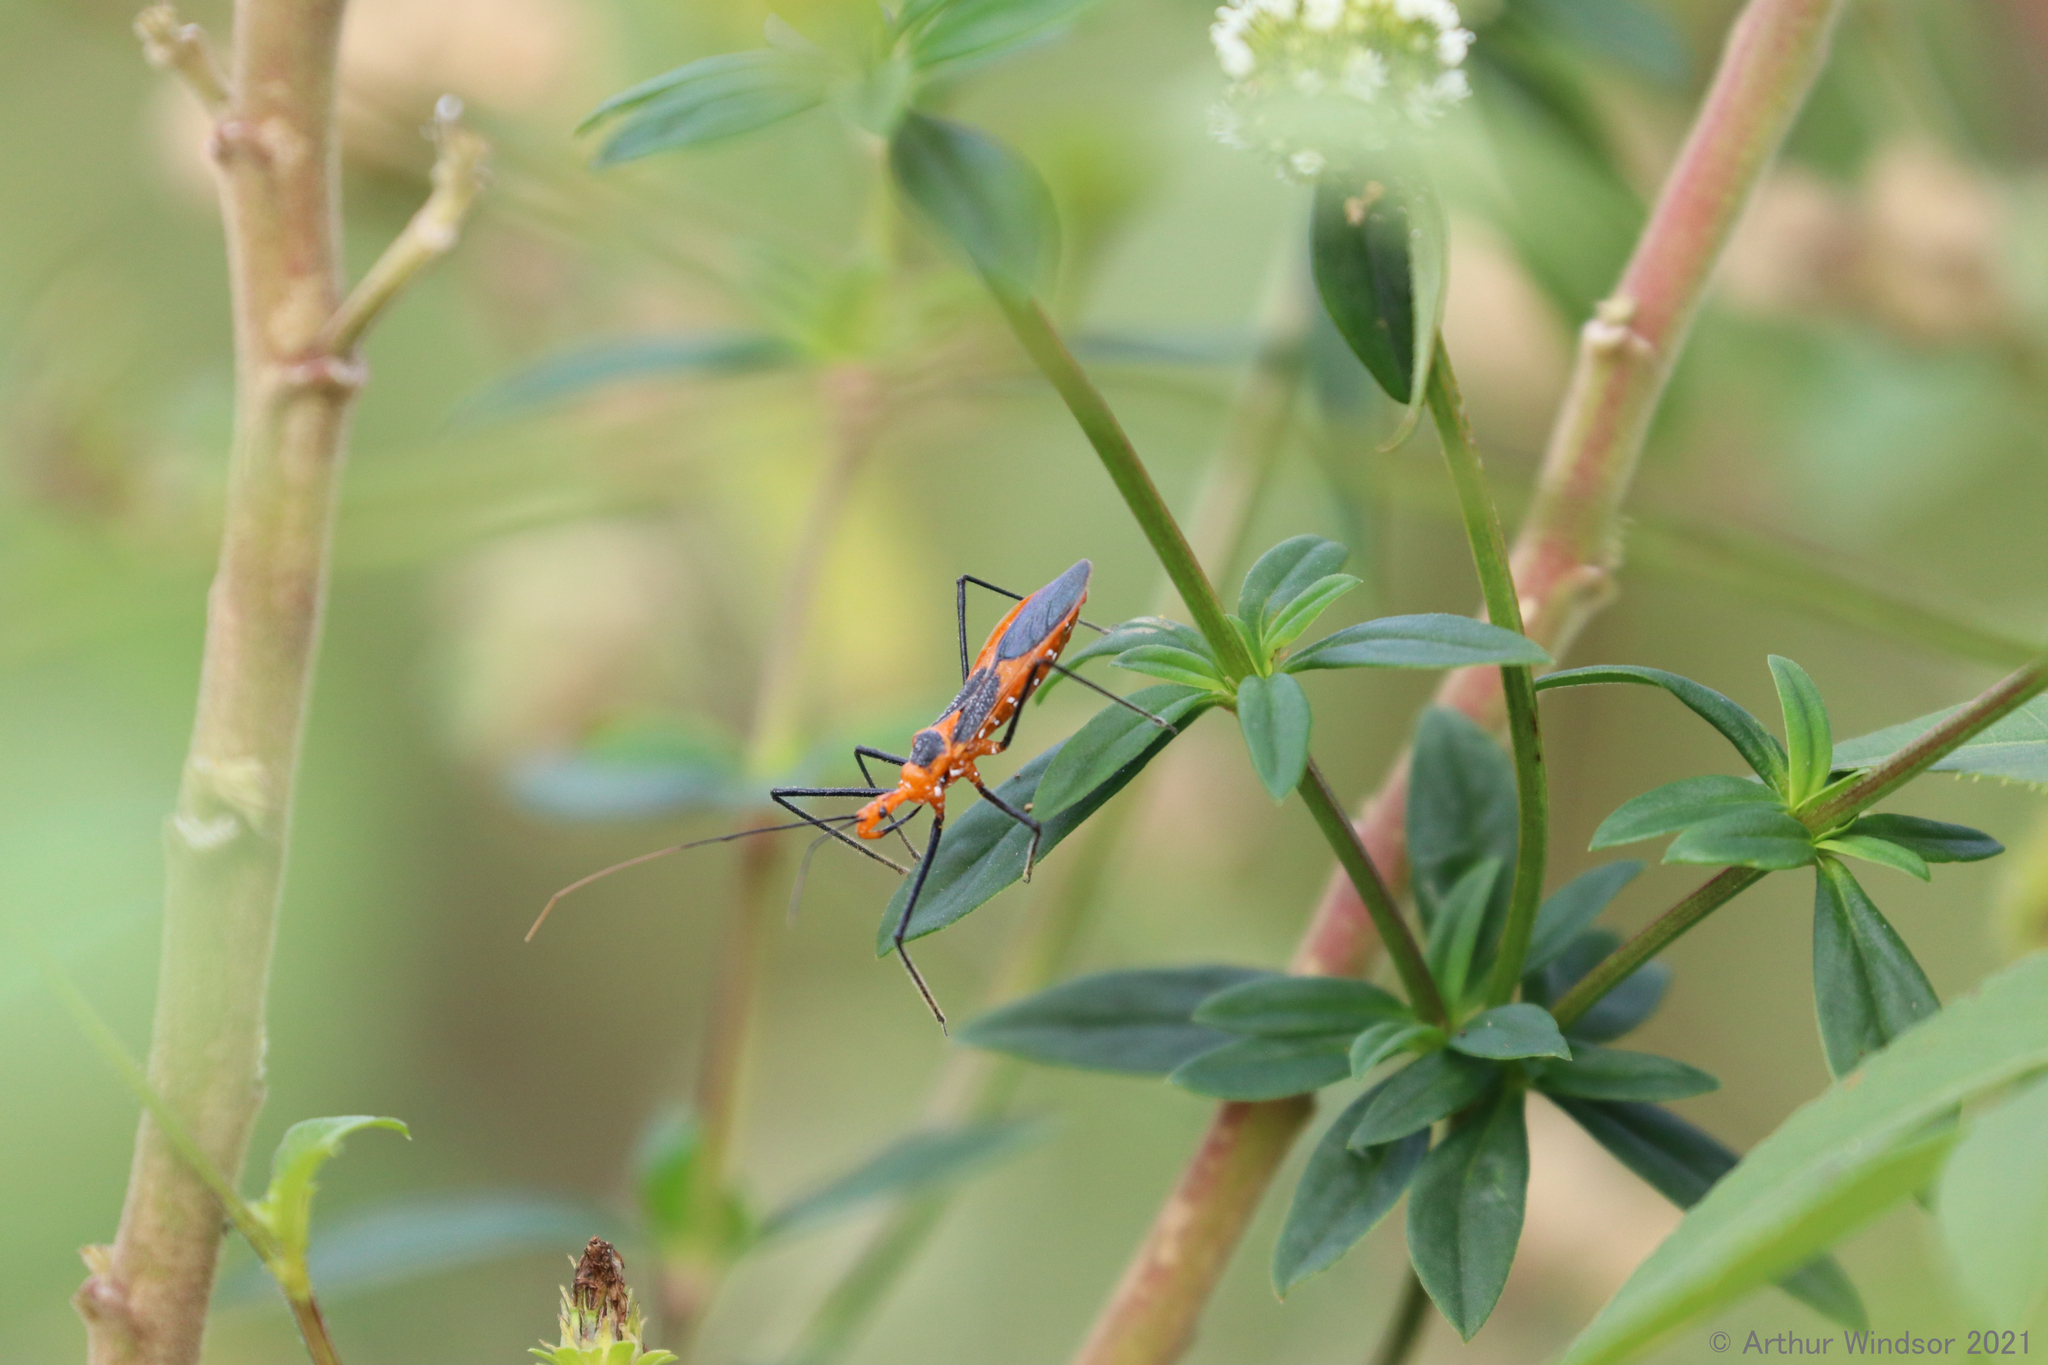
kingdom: Animalia
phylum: Arthropoda
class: Insecta
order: Hemiptera
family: Reduviidae
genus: Zelus
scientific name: Zelus longipes
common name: Milkweed assassin bug
